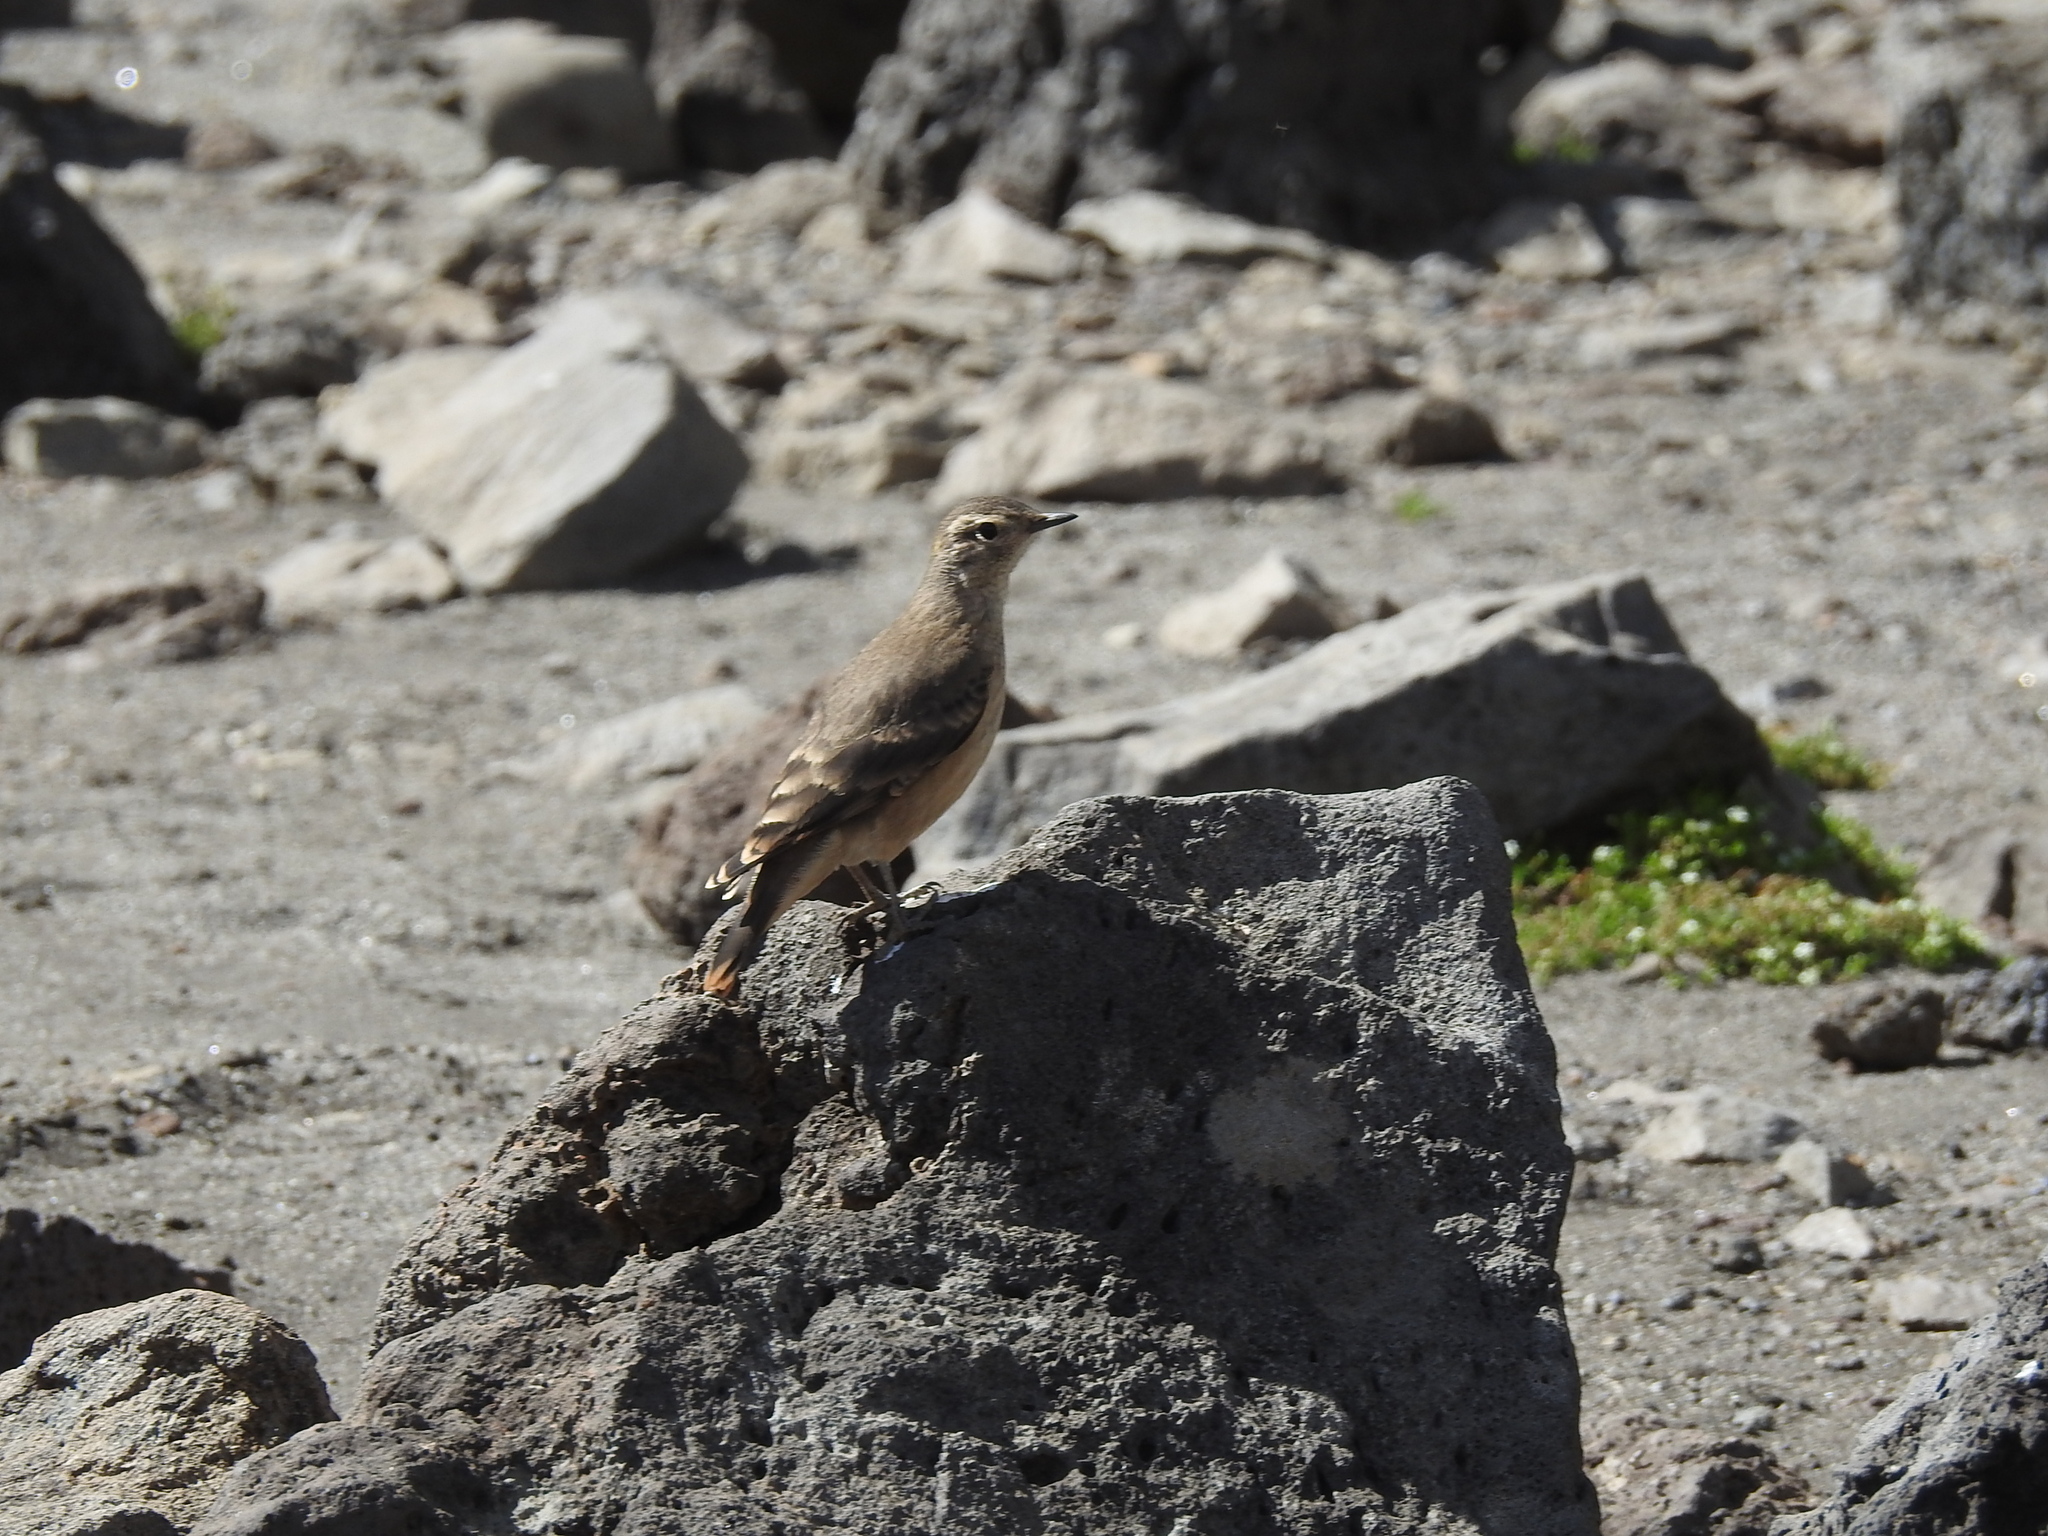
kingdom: Animalia
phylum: Chordata
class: Aves
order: Passeriformes
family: Furnariidae
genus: Geositta
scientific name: Geositta rufipennis
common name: Rufous-banded miner
